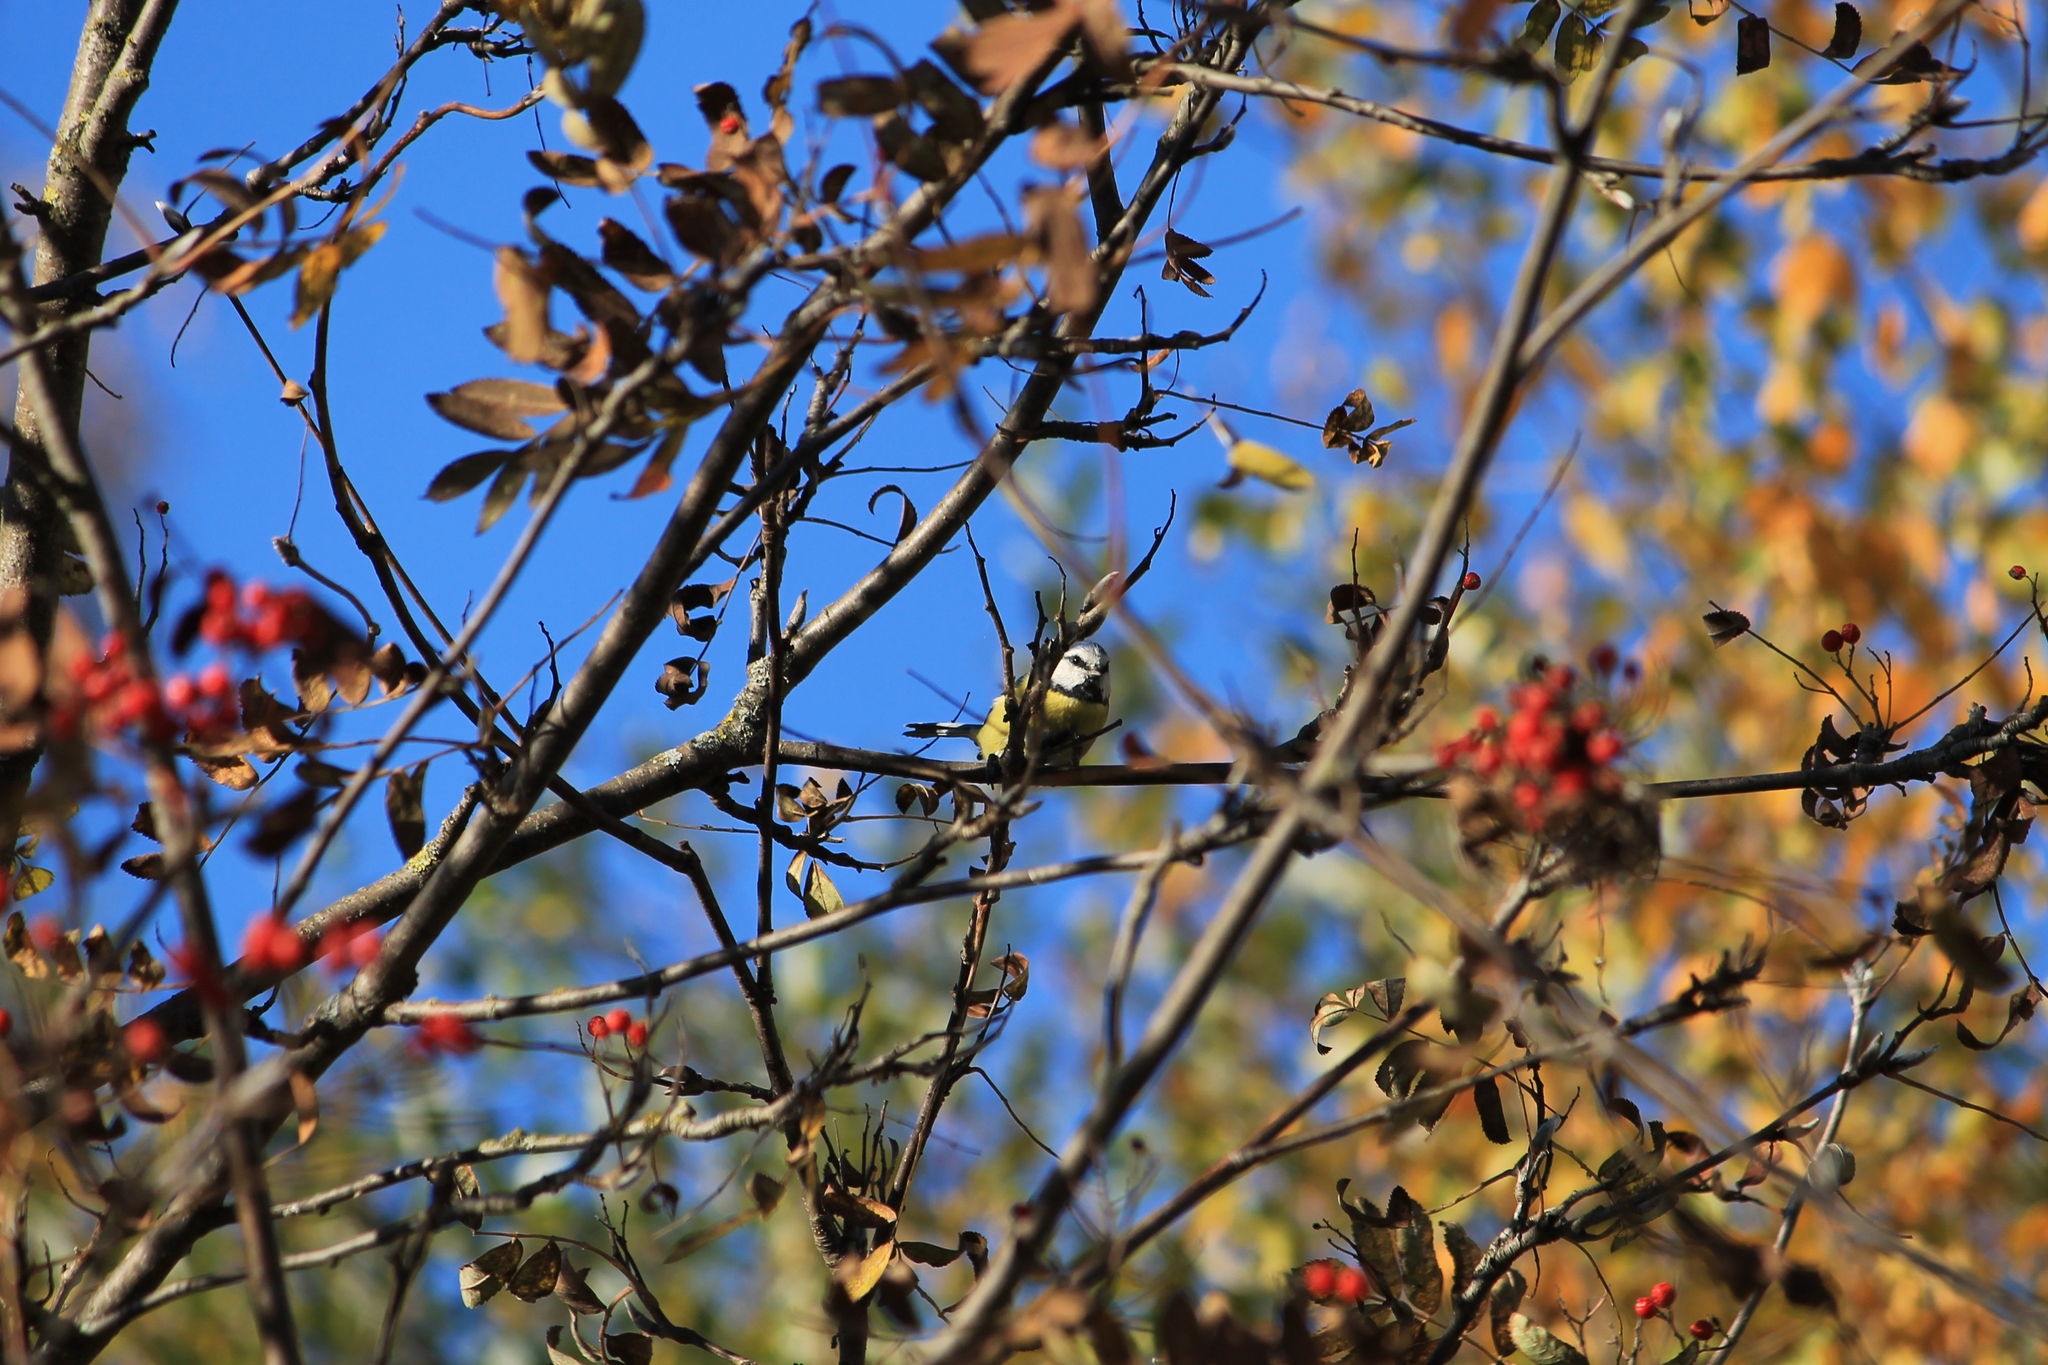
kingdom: Animalia
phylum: Chordata
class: Aves
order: Passeriformes
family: Paridae
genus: Cyanistes
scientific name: Cyanistes caeruleus
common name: Eurasian blue tit
